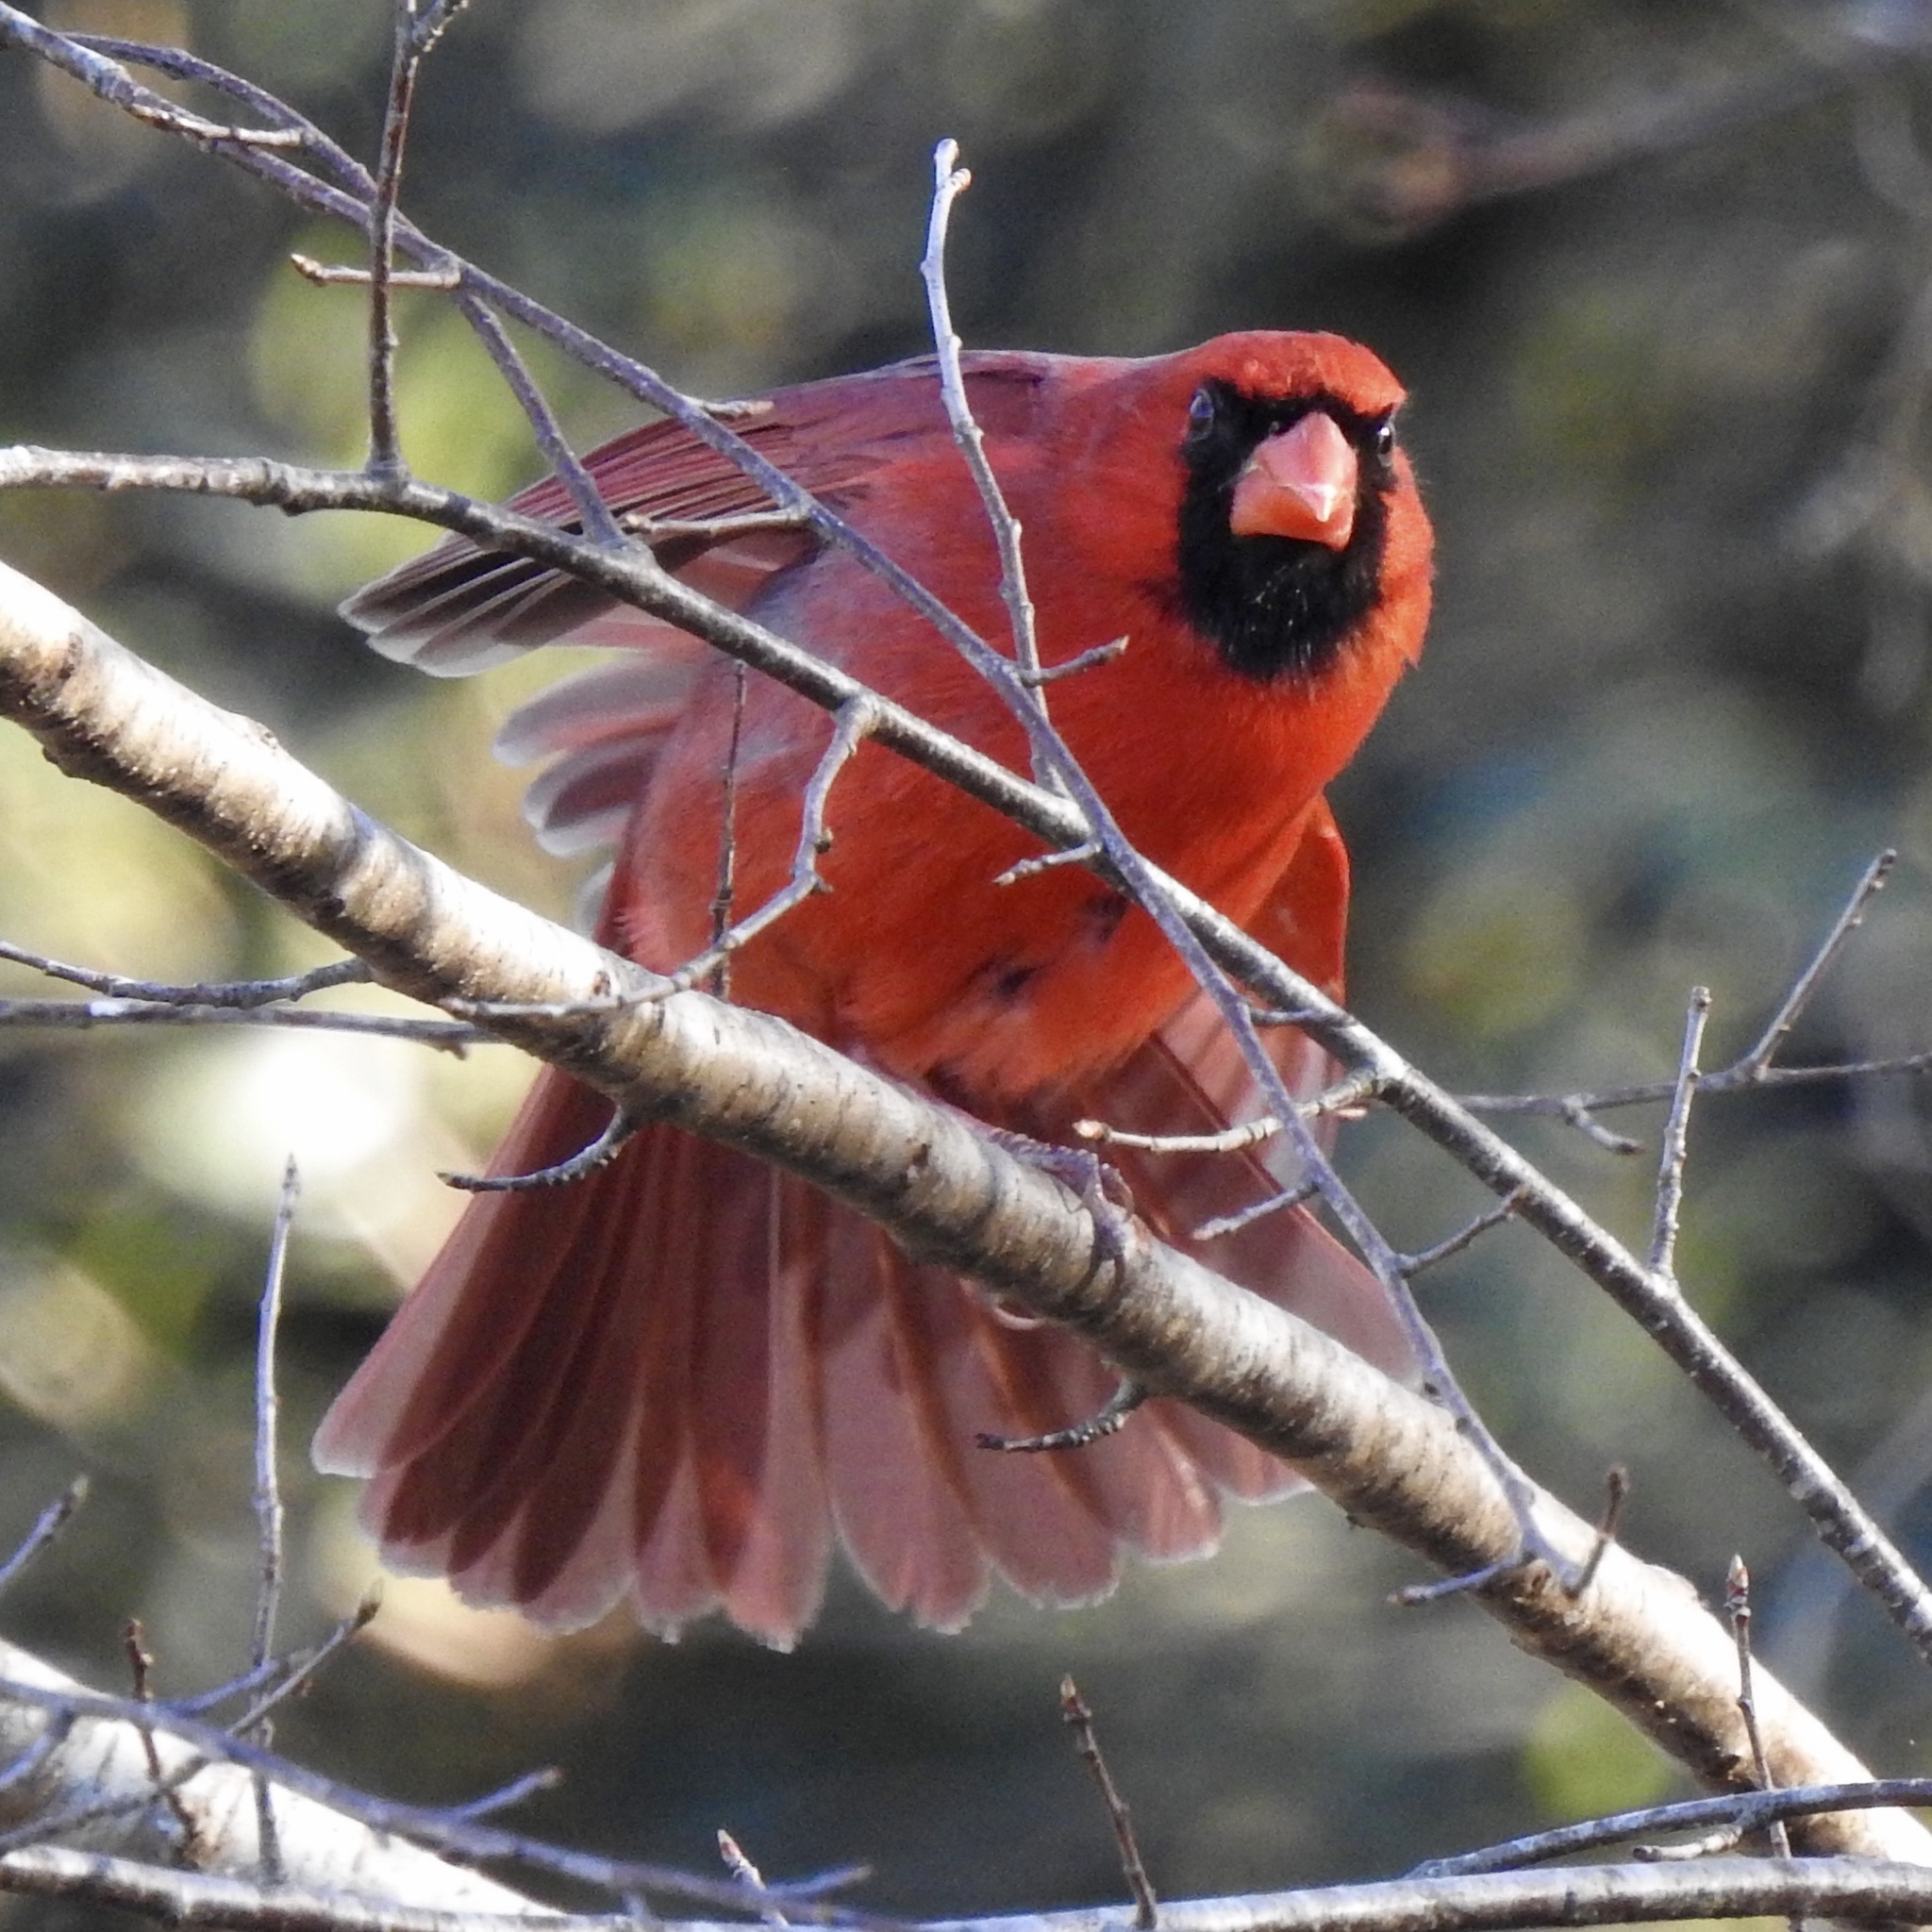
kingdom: Animalia
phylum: Chordata
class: Aves
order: Passeriformes
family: Cardinalidae
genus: Cardinalis
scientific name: Cardinalis cardinalis
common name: Northern cardinal
